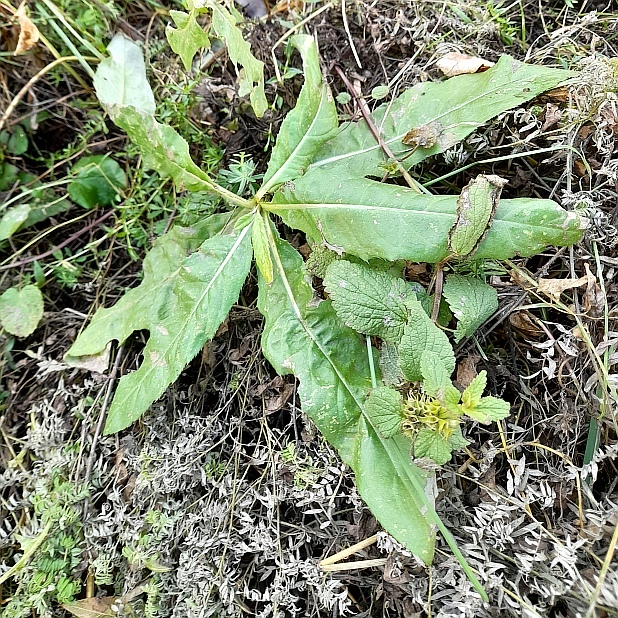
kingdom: Plantae
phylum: Tracheophyta
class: Magnoliopsida
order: Asterales
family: Asteraceae
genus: Cirsium
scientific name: Cirsium arvense
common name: Creeping thistle
